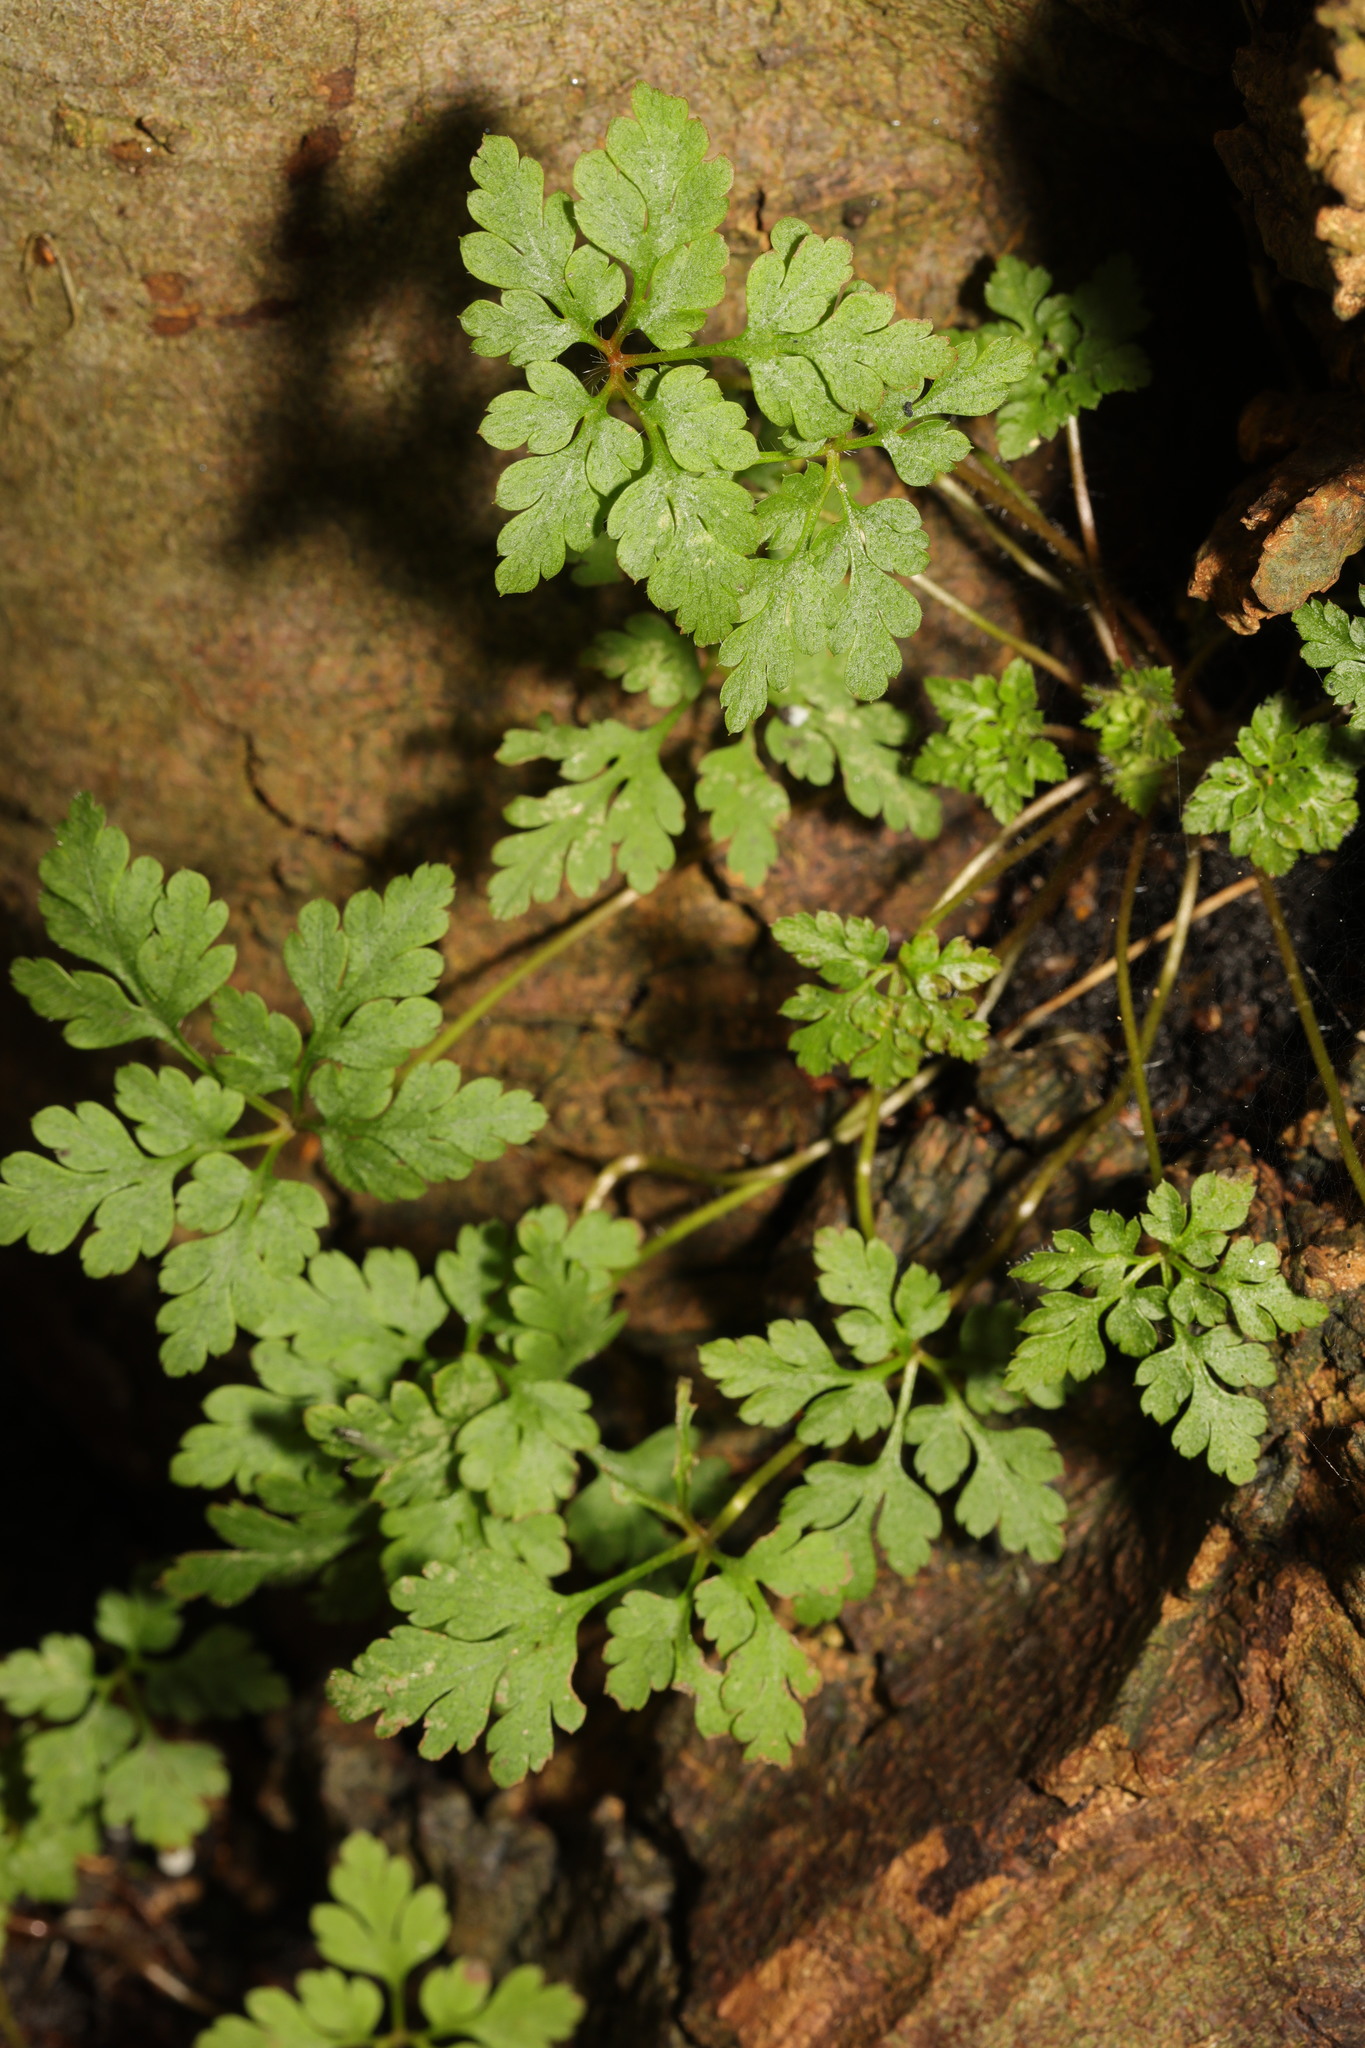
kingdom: Plantae
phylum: Tracheophyta
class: Magnoliopsida
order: Geraniales
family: Geraniaceae
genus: Geranium
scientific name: Geranium robertianum
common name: Herb-robert
